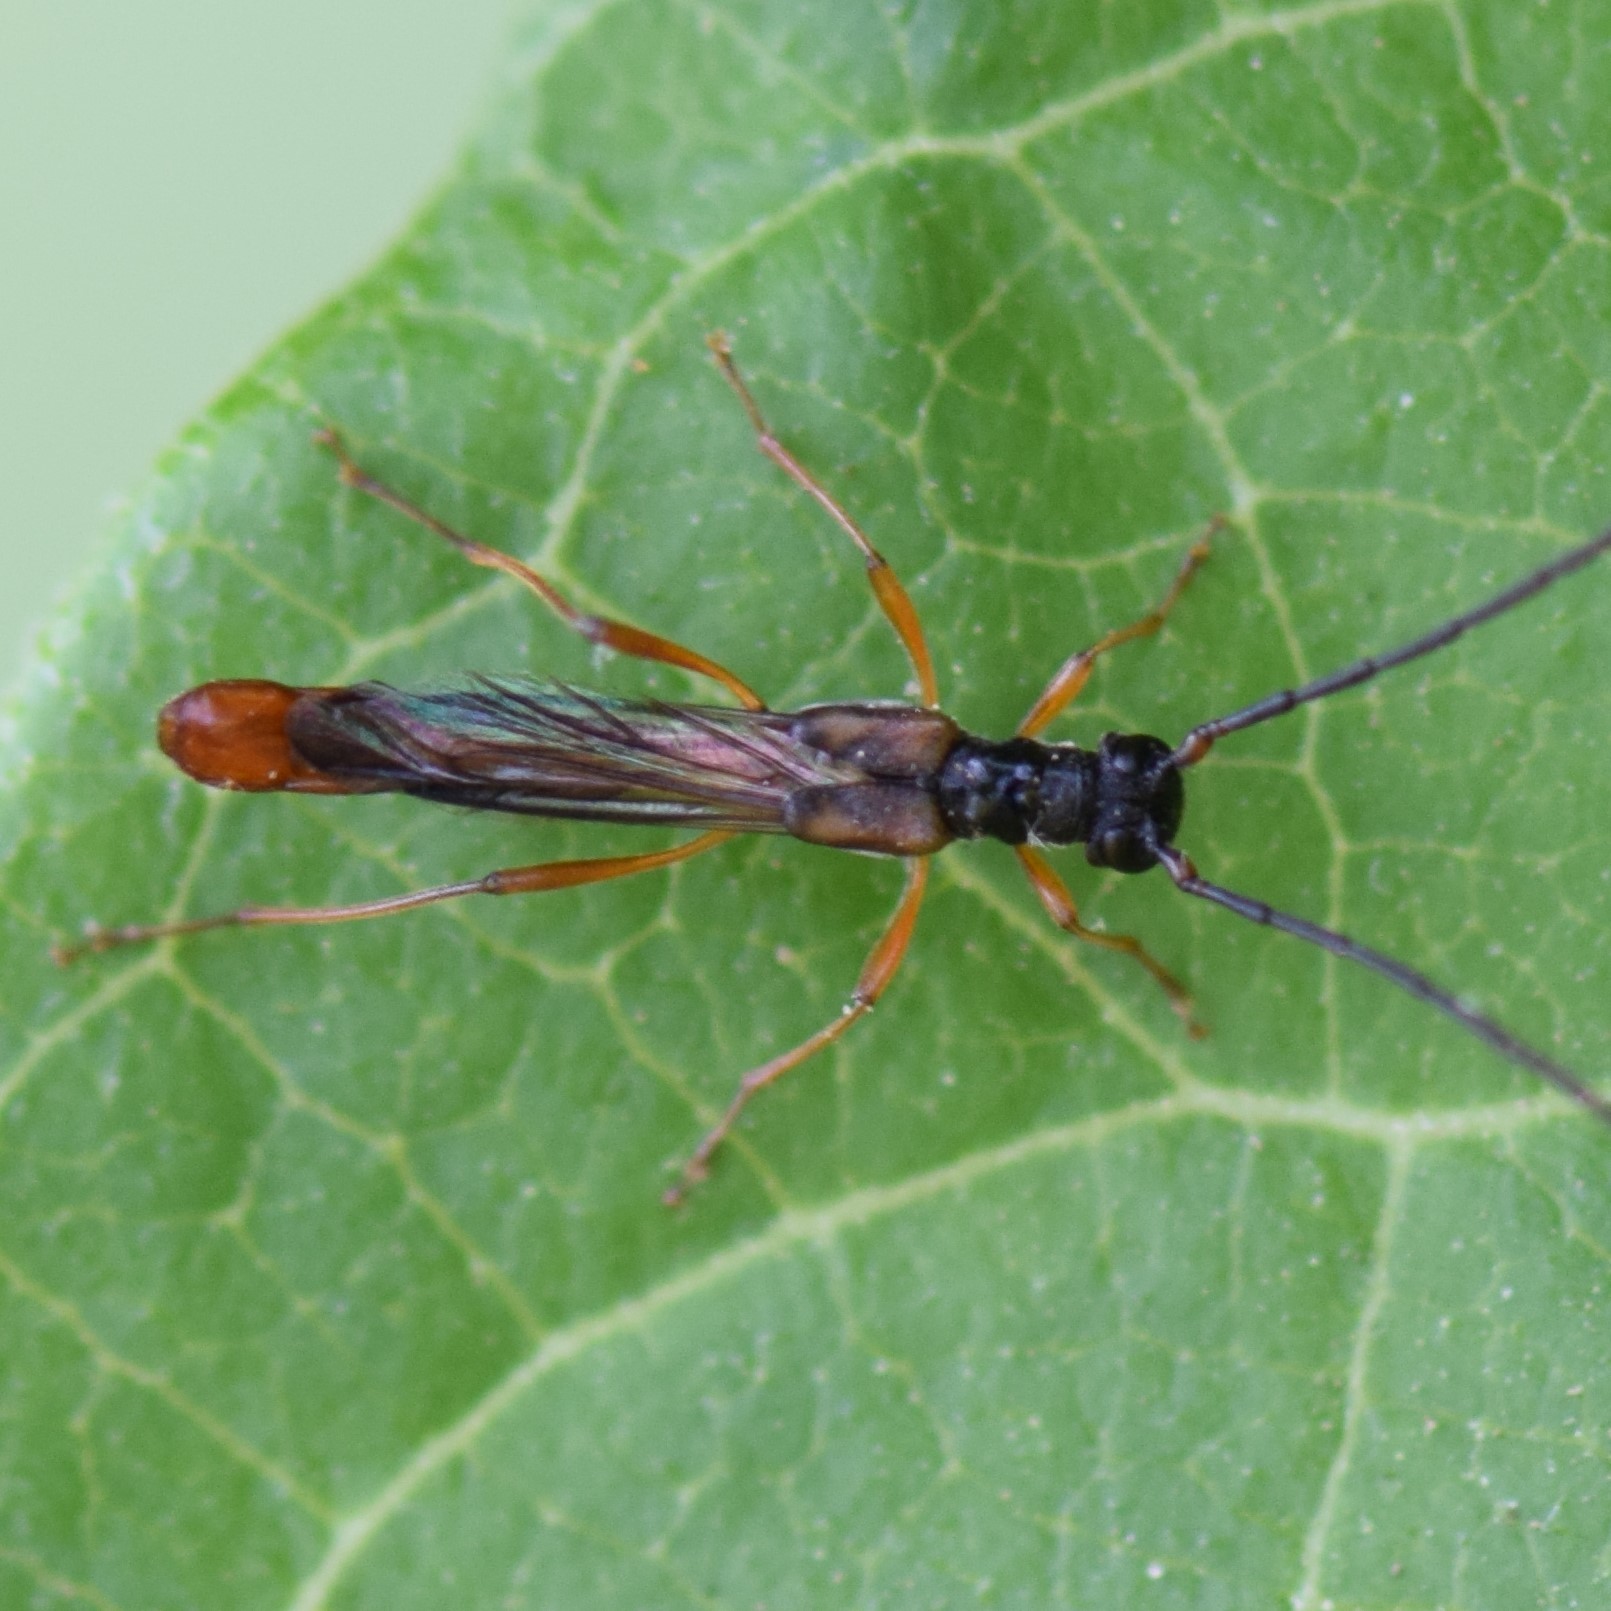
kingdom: Animalia
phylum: Arthropoda
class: Insecta
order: Coleoptera
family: Cerambycidae
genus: Necydalis
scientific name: Necydalis mellita
